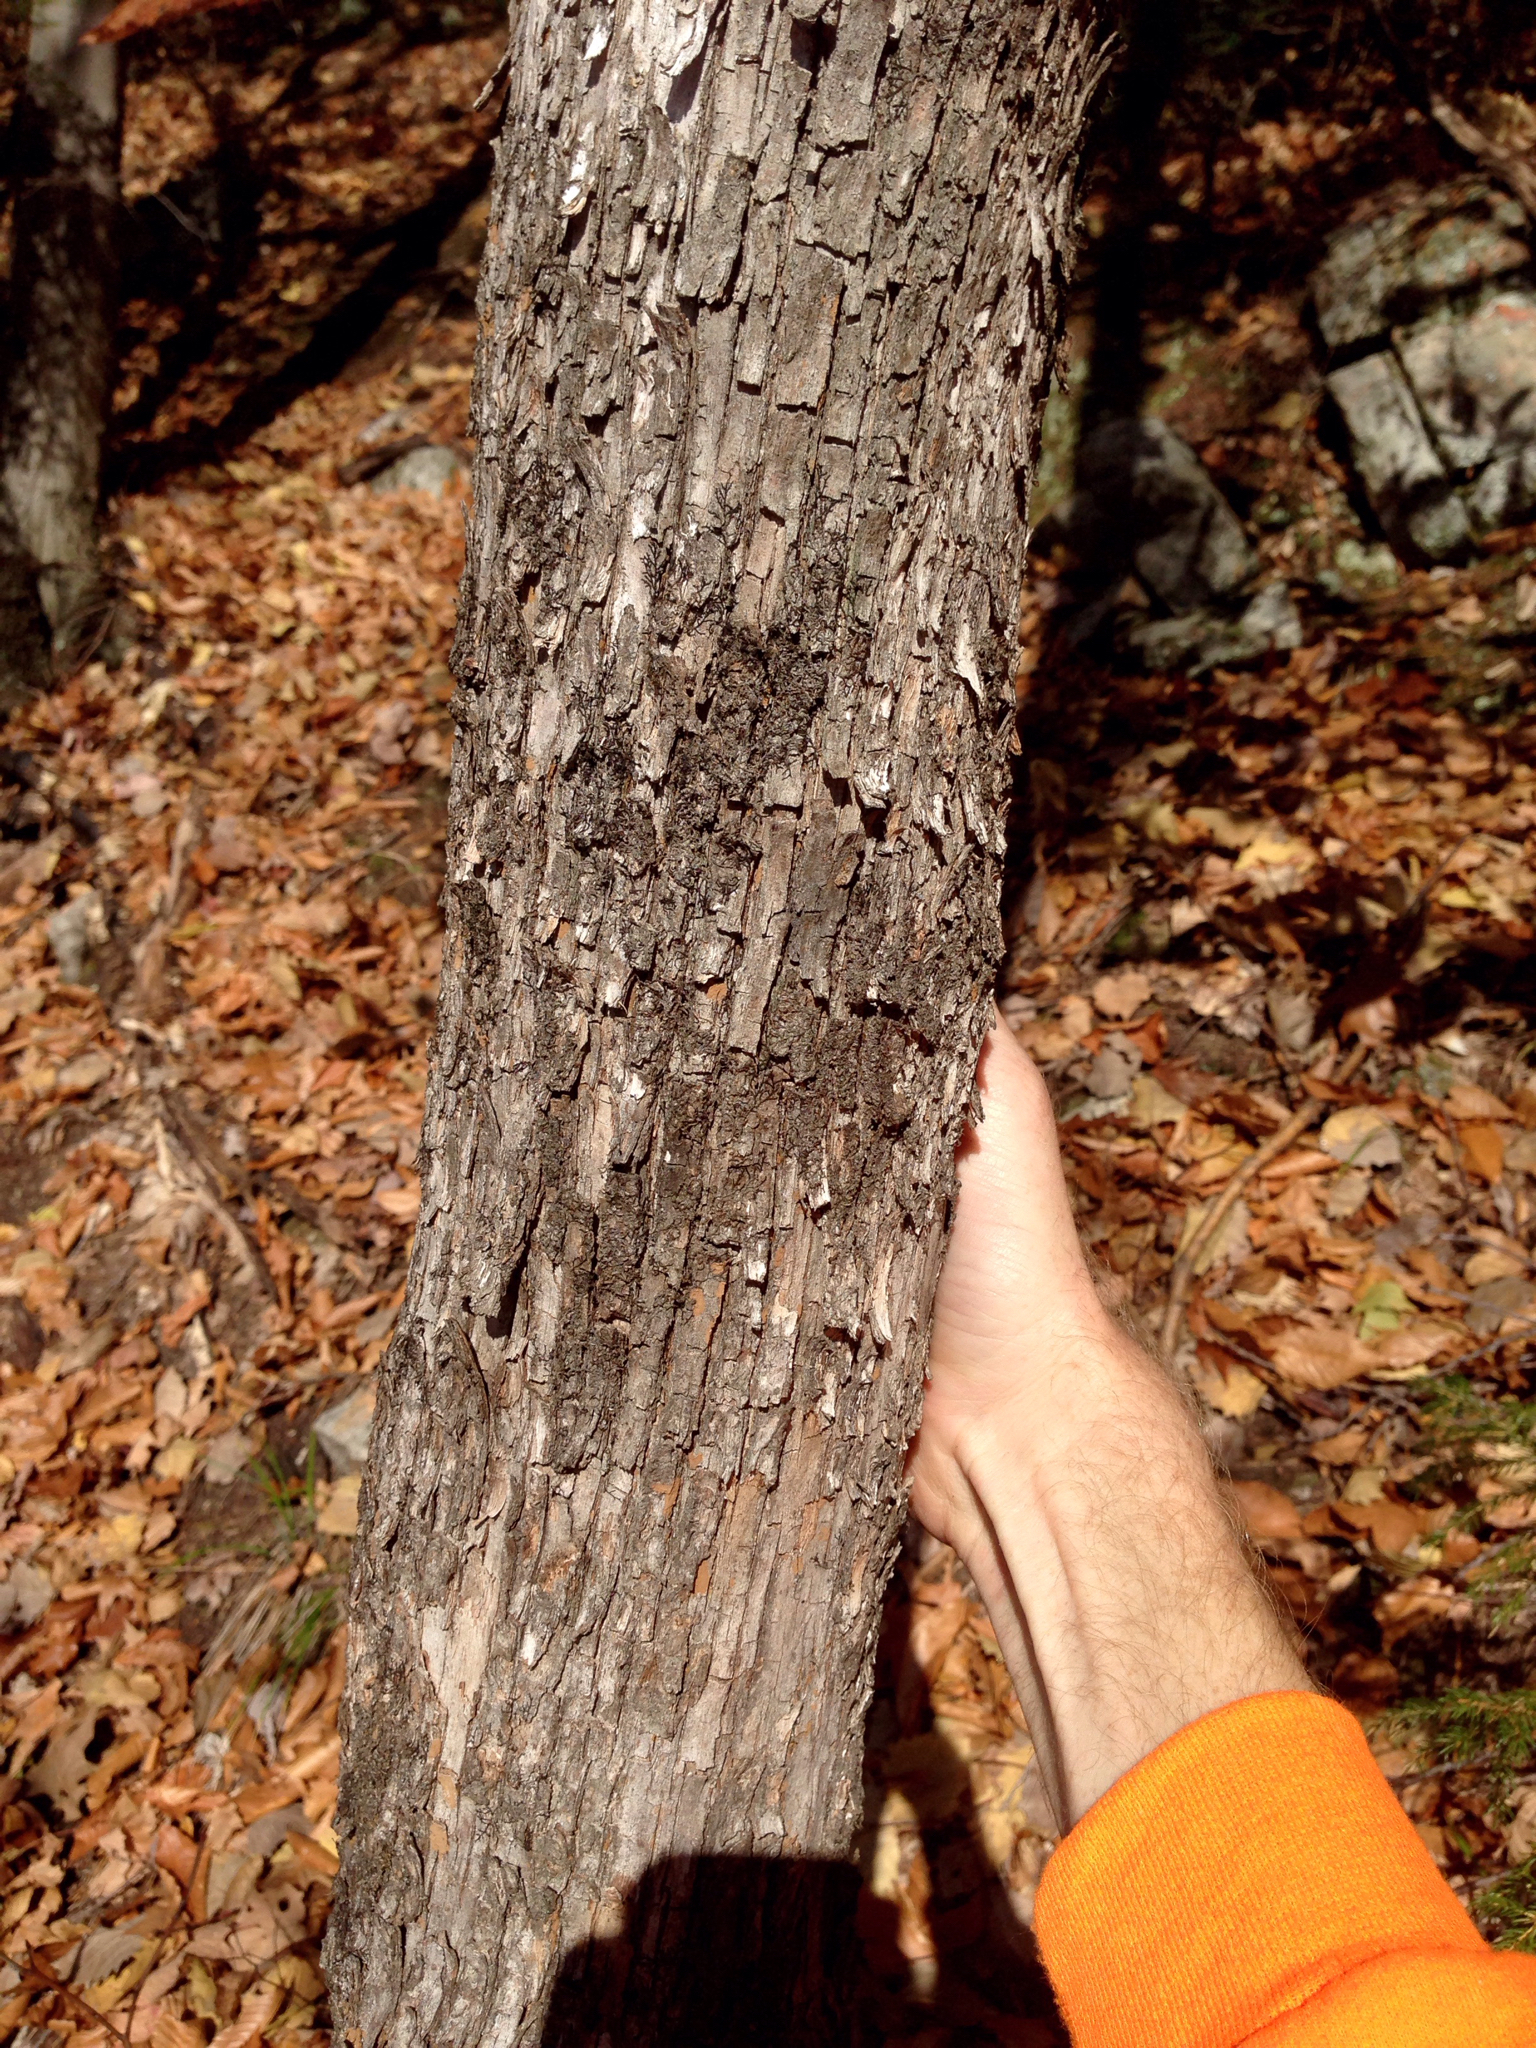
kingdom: Plantae
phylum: Tracheophyta
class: Magnoliopsida
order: Fagales
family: Betulaceae
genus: Ostrya
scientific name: Ostrya virginiana
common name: Ironwood
